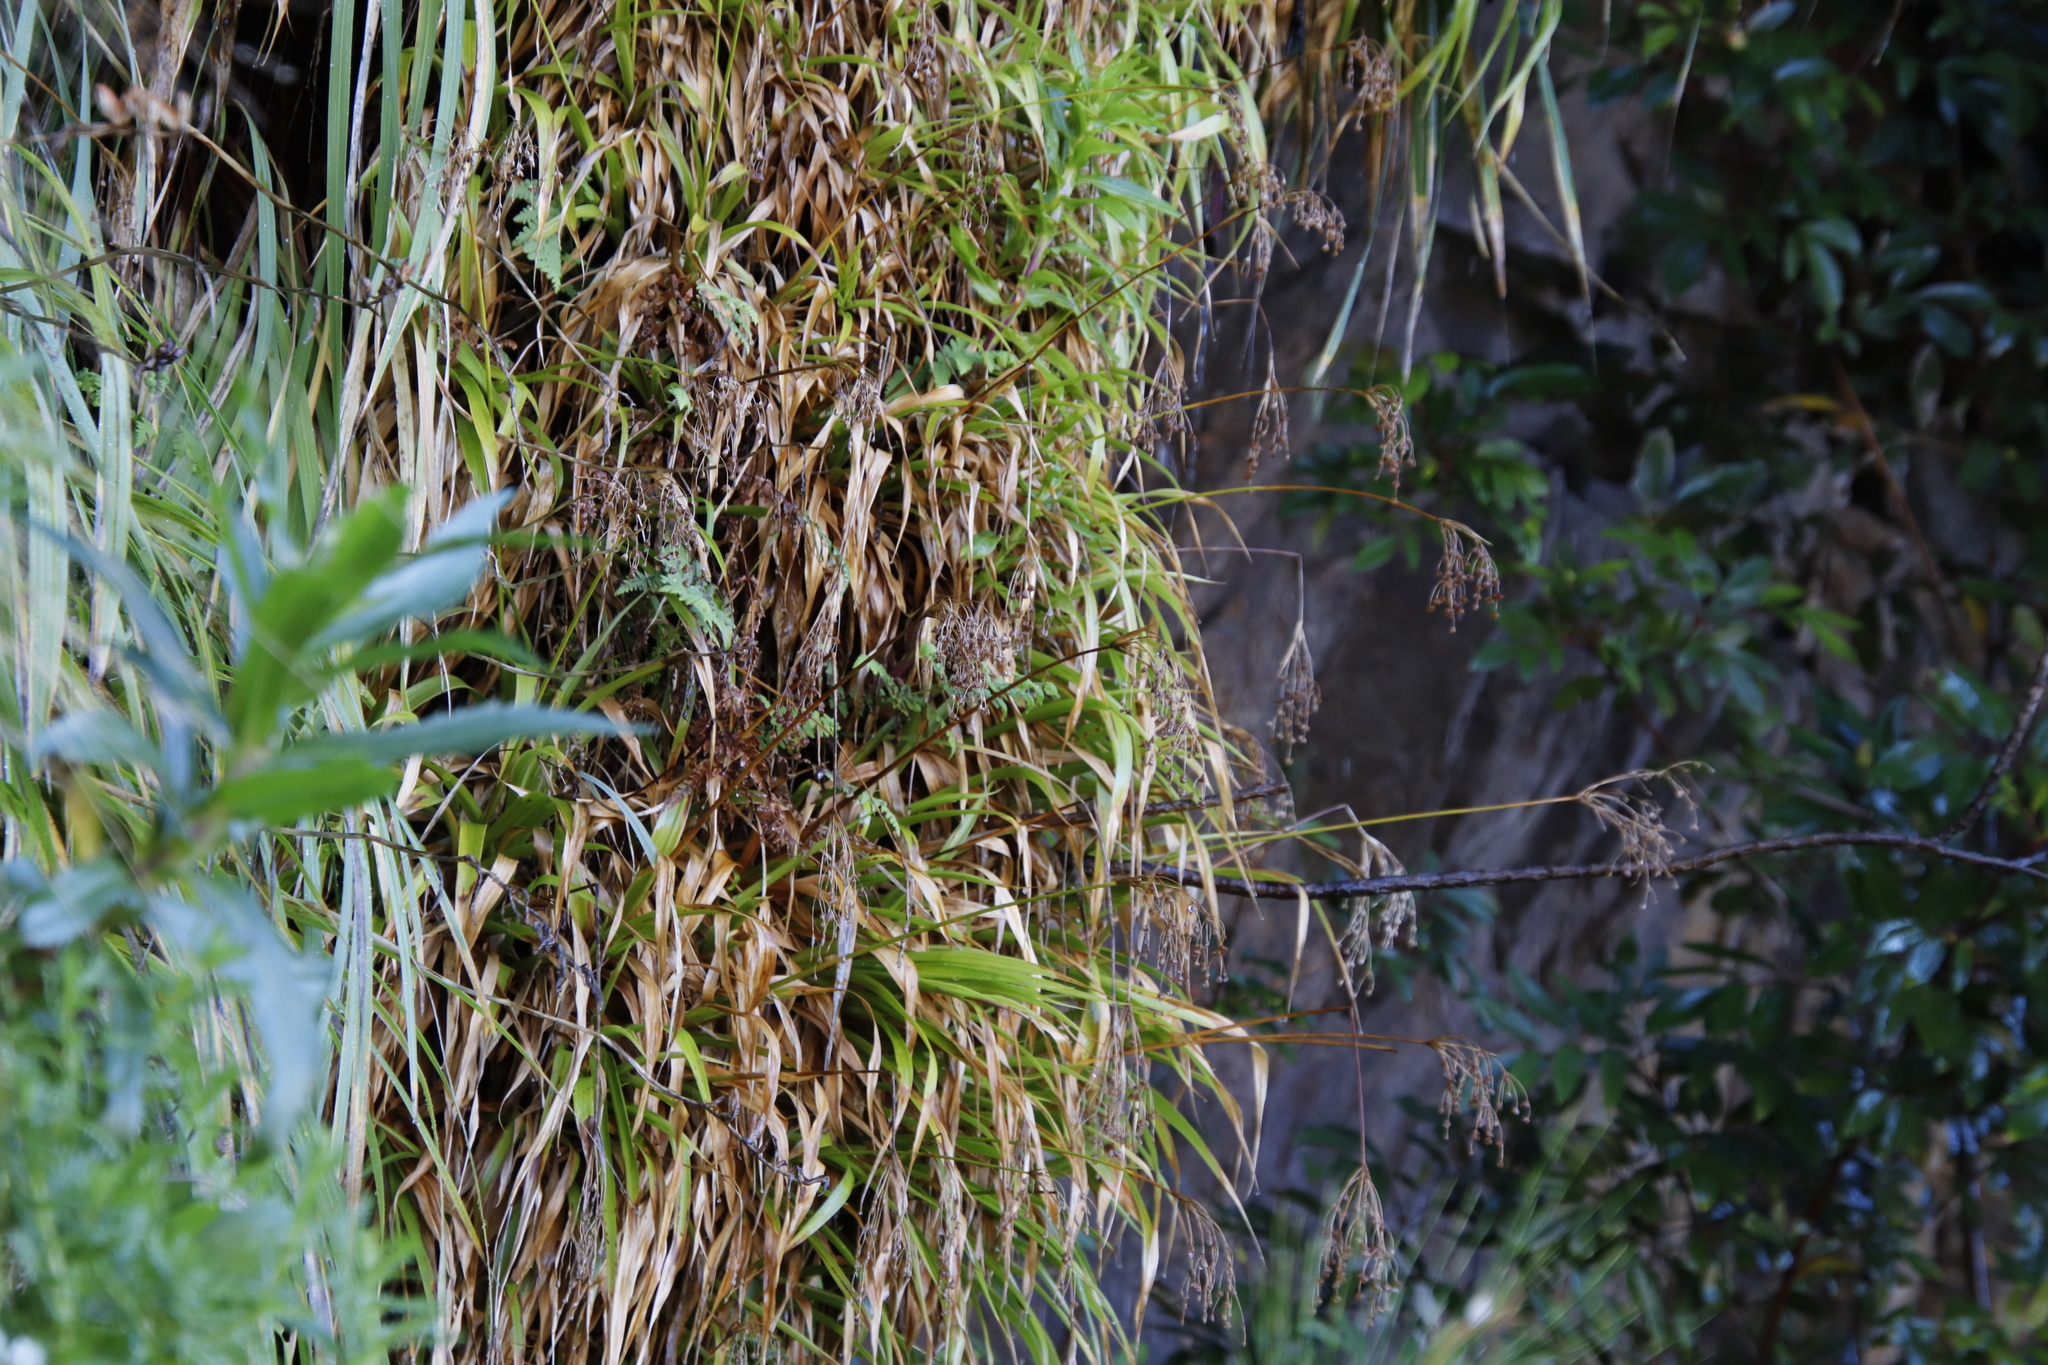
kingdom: Plantae
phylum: Tracheophyta
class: Liliopsida
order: Poales
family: Juncaceae
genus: Juncus
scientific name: Juncus lomatophyllus
